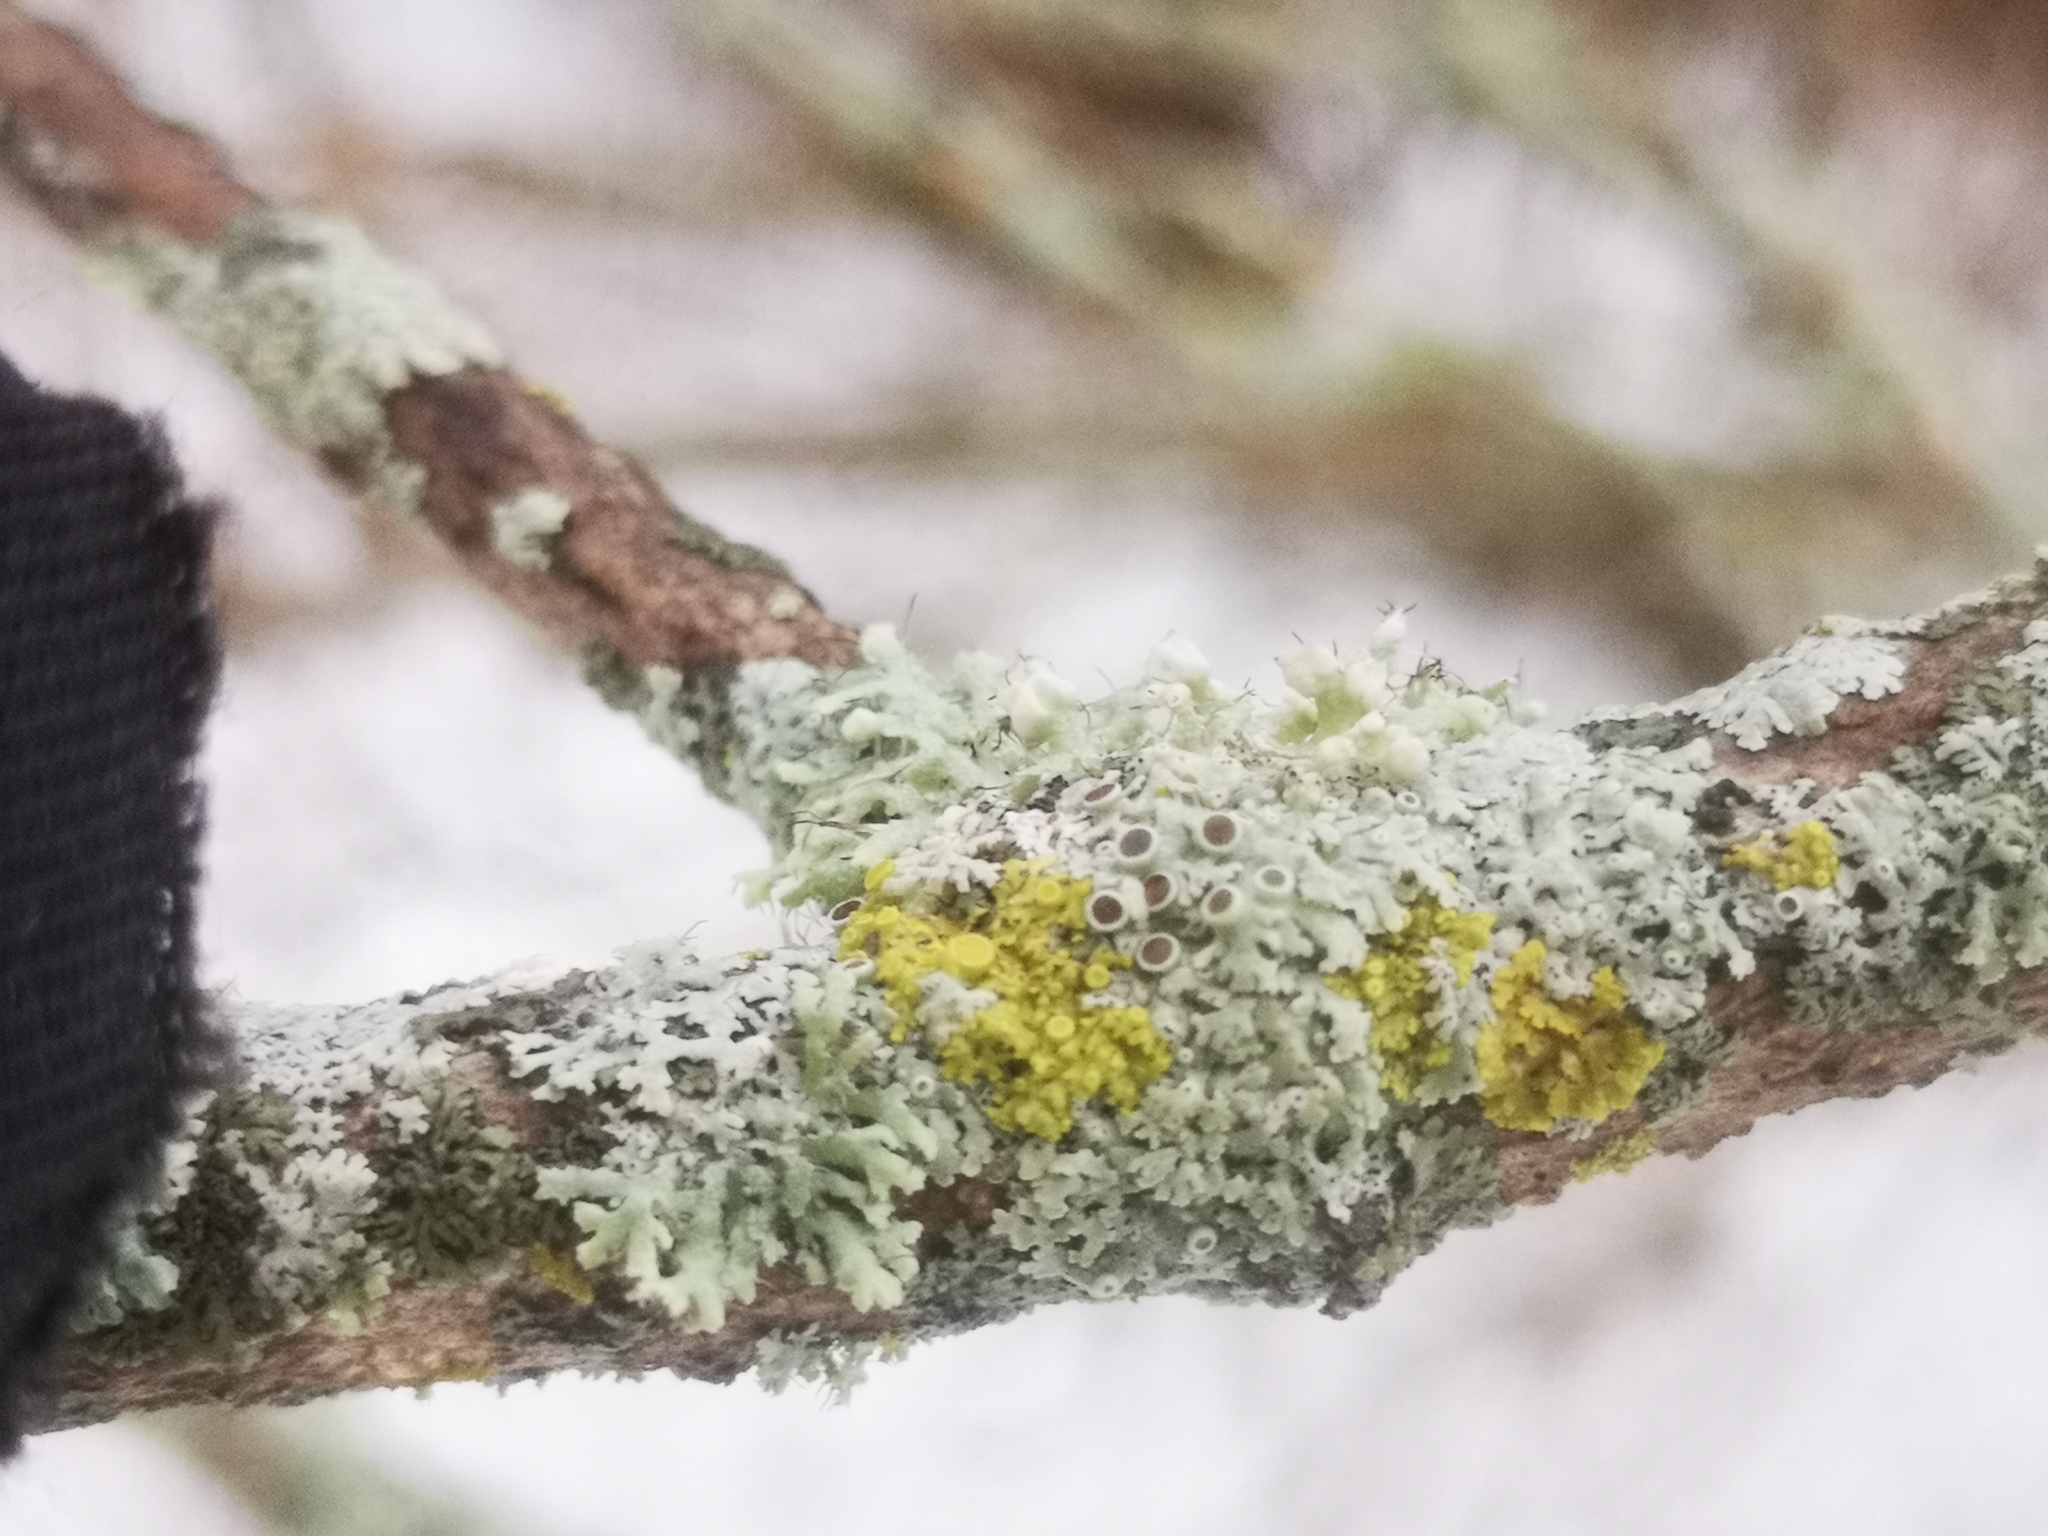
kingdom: Fungi
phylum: Ascomycota
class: Lecanoromycetes
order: Caliciales
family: Physciaceae
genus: Physcia
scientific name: Physcia millegrana
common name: Rosette lichen
